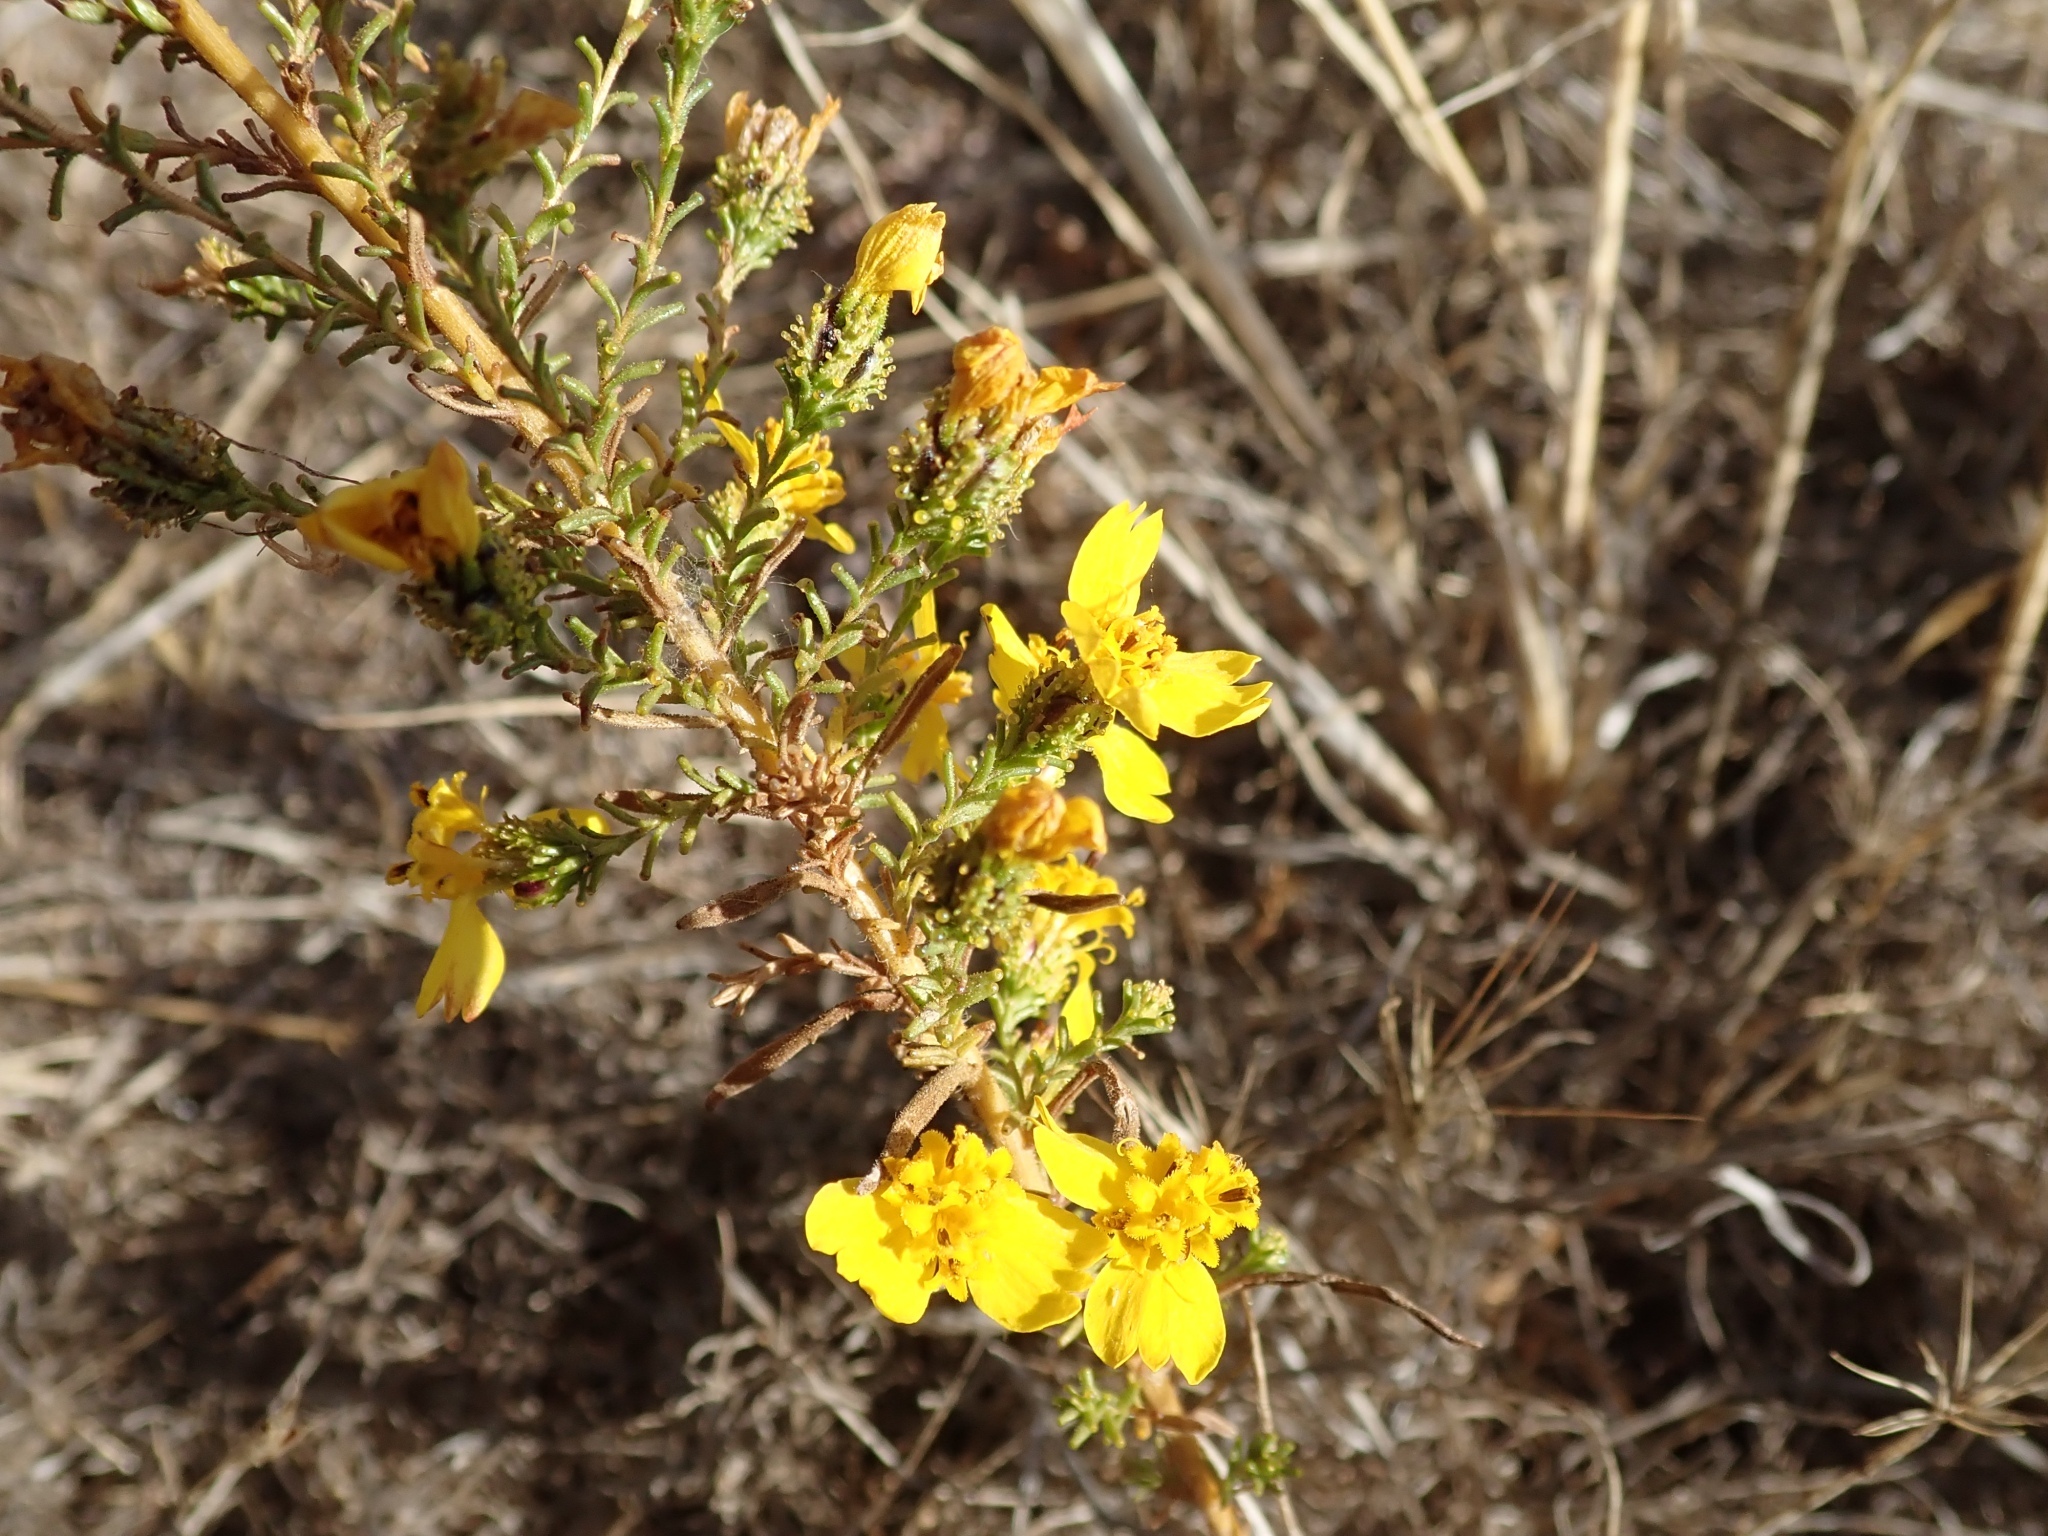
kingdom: Plantae
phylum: Tracheophyta
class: Magnoliopsida
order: Asterales
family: Asteraceae
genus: Holocarpha
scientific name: Holocarpha virgata
